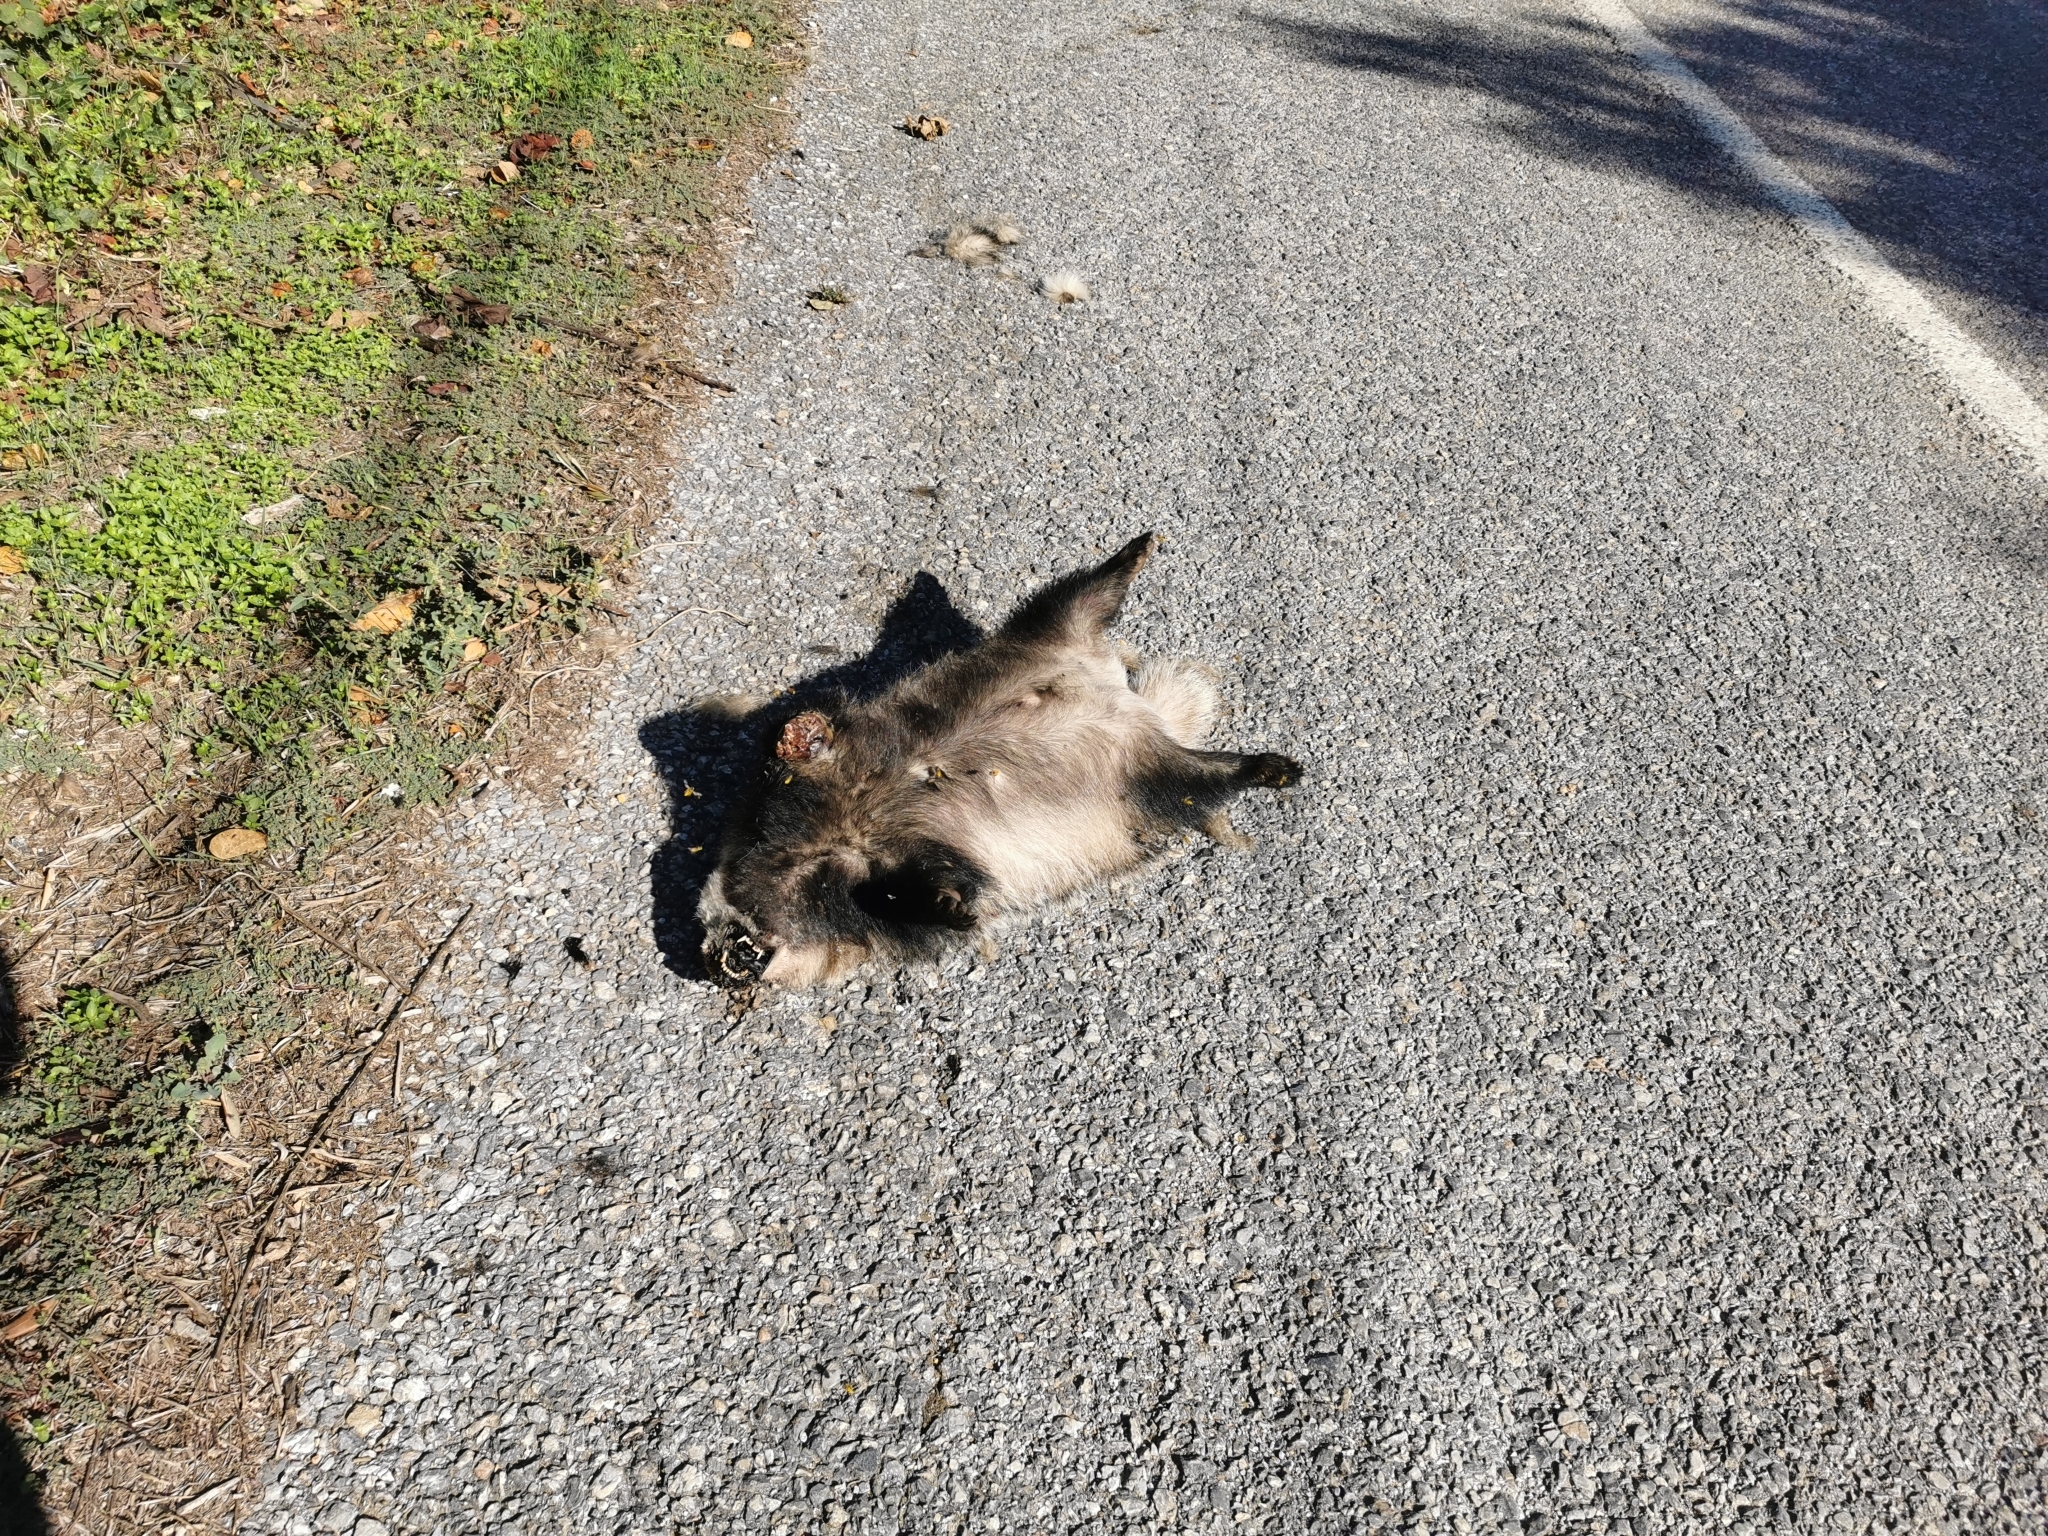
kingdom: Animalia
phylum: Chordata
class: Mammalia
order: Carnivora
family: Mustelidae
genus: Meles
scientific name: Meles meles
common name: Eurasian badger
